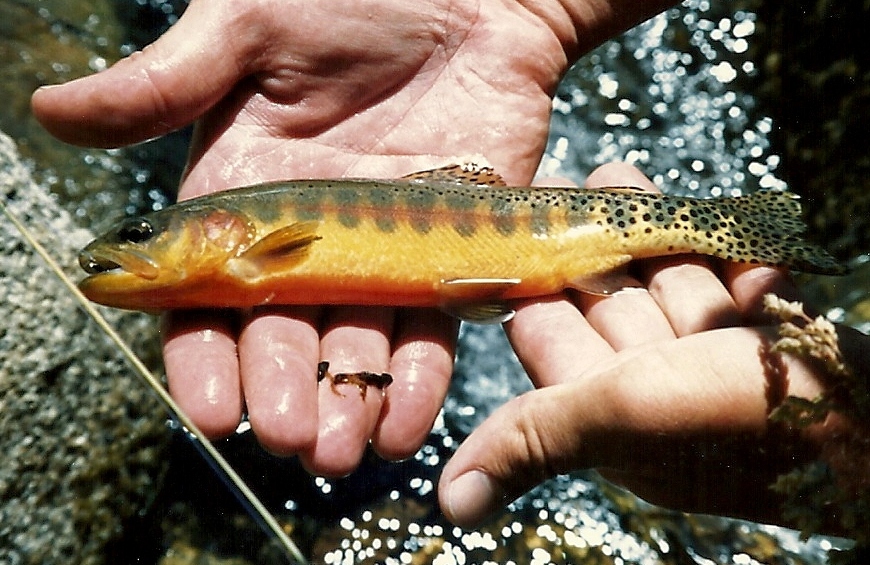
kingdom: Animalia
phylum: Chordata
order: Salmoniformes
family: Salmonidae
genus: Oncorhynchus
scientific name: Oncorhynchus aguabonita
